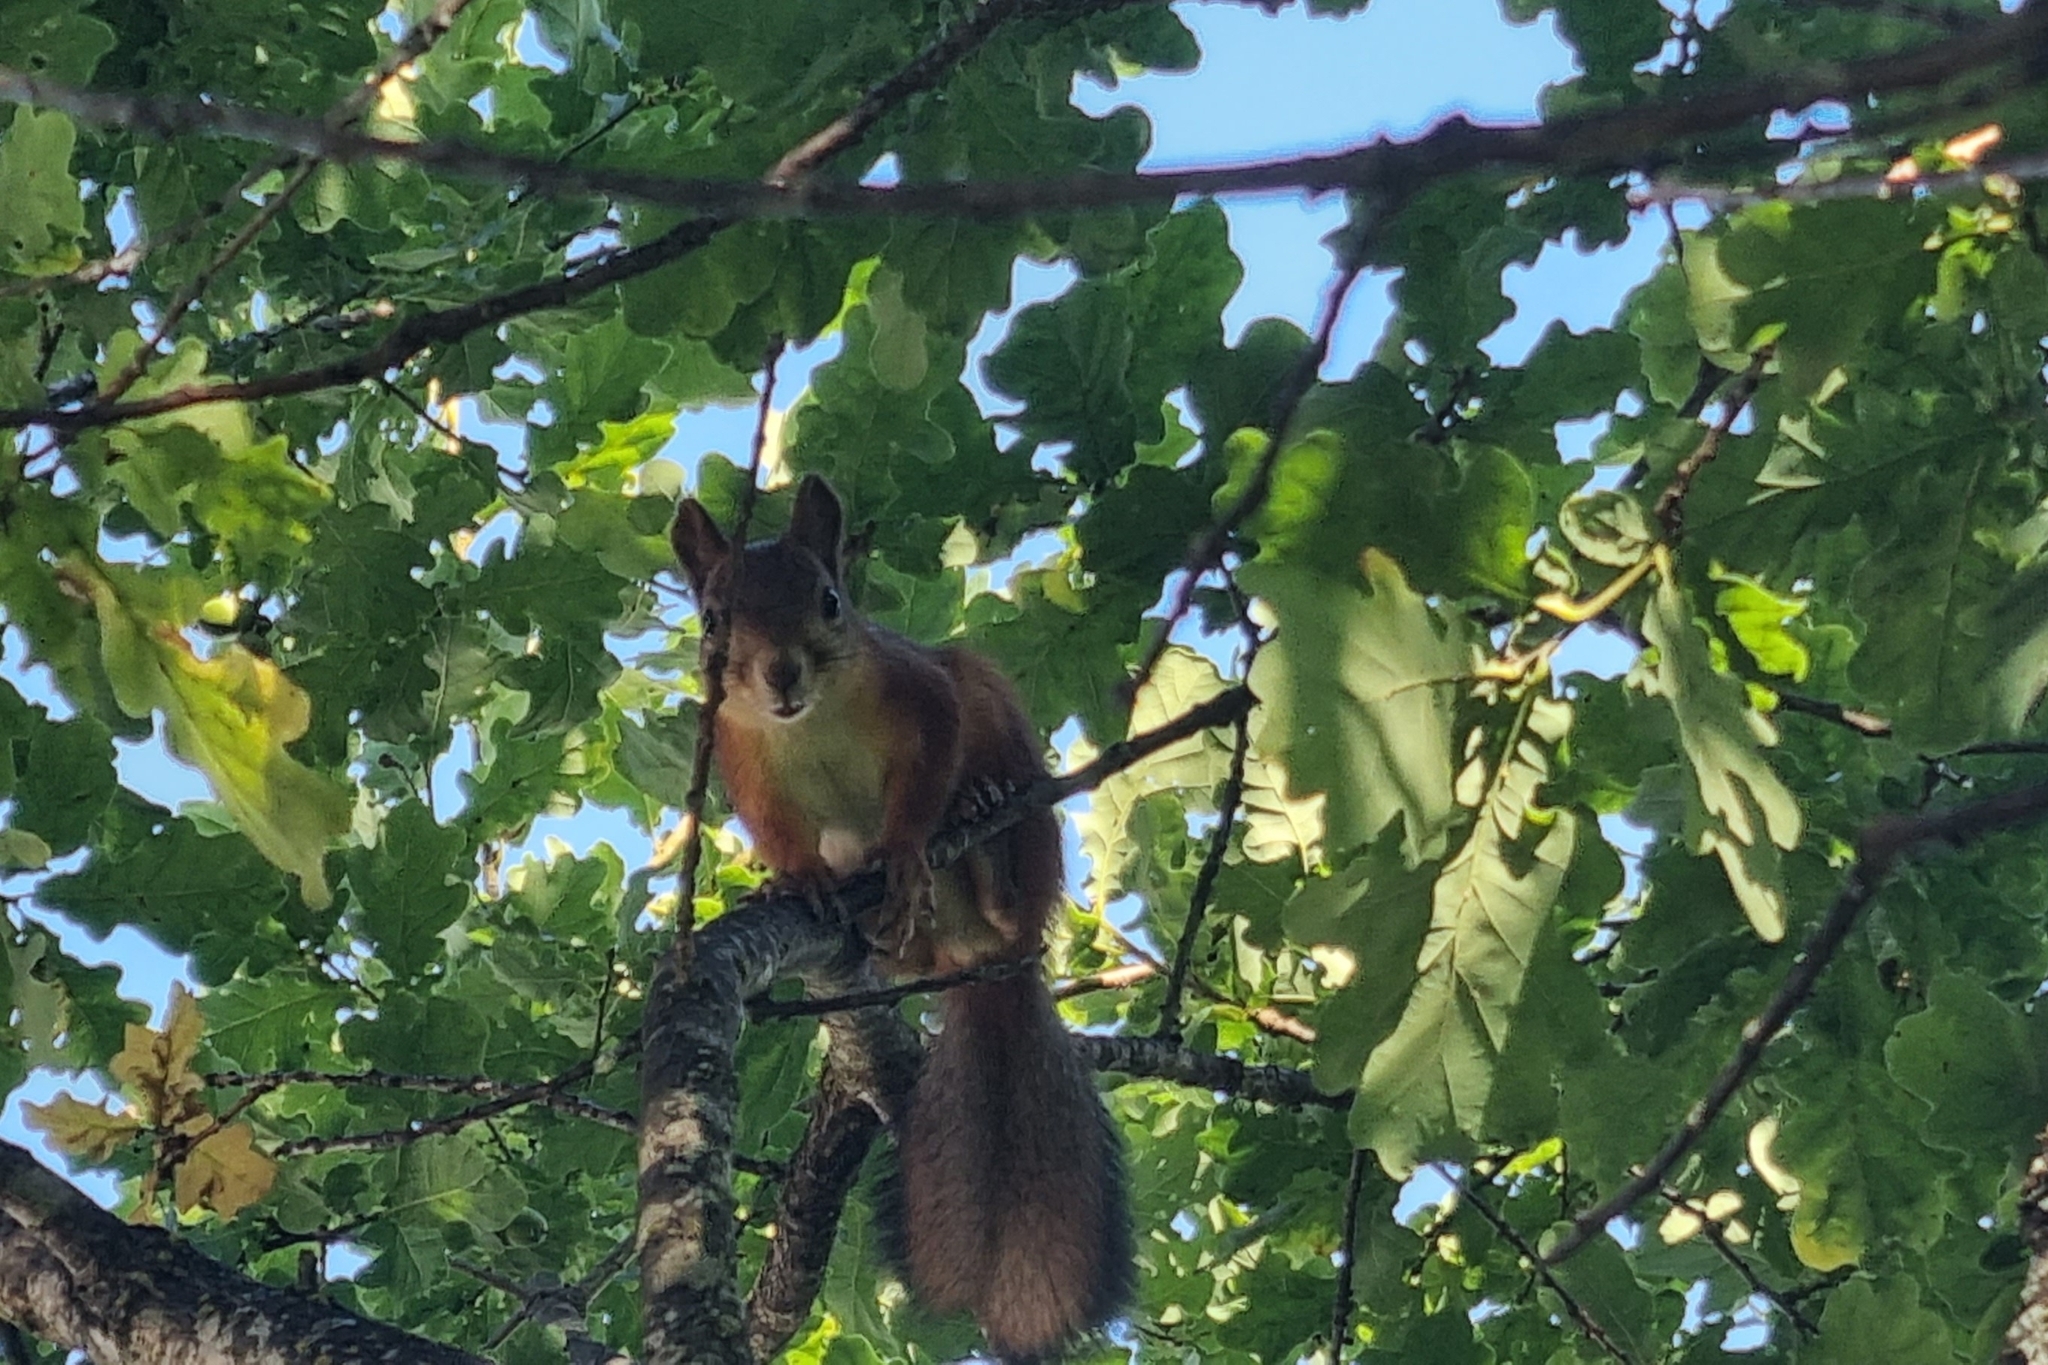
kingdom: Animalia
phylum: Chordata
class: Mammalia
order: Rodentia
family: Sciuridae
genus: Sciurus
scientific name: Sciurus vulgaris
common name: Eurasian red squirrel
